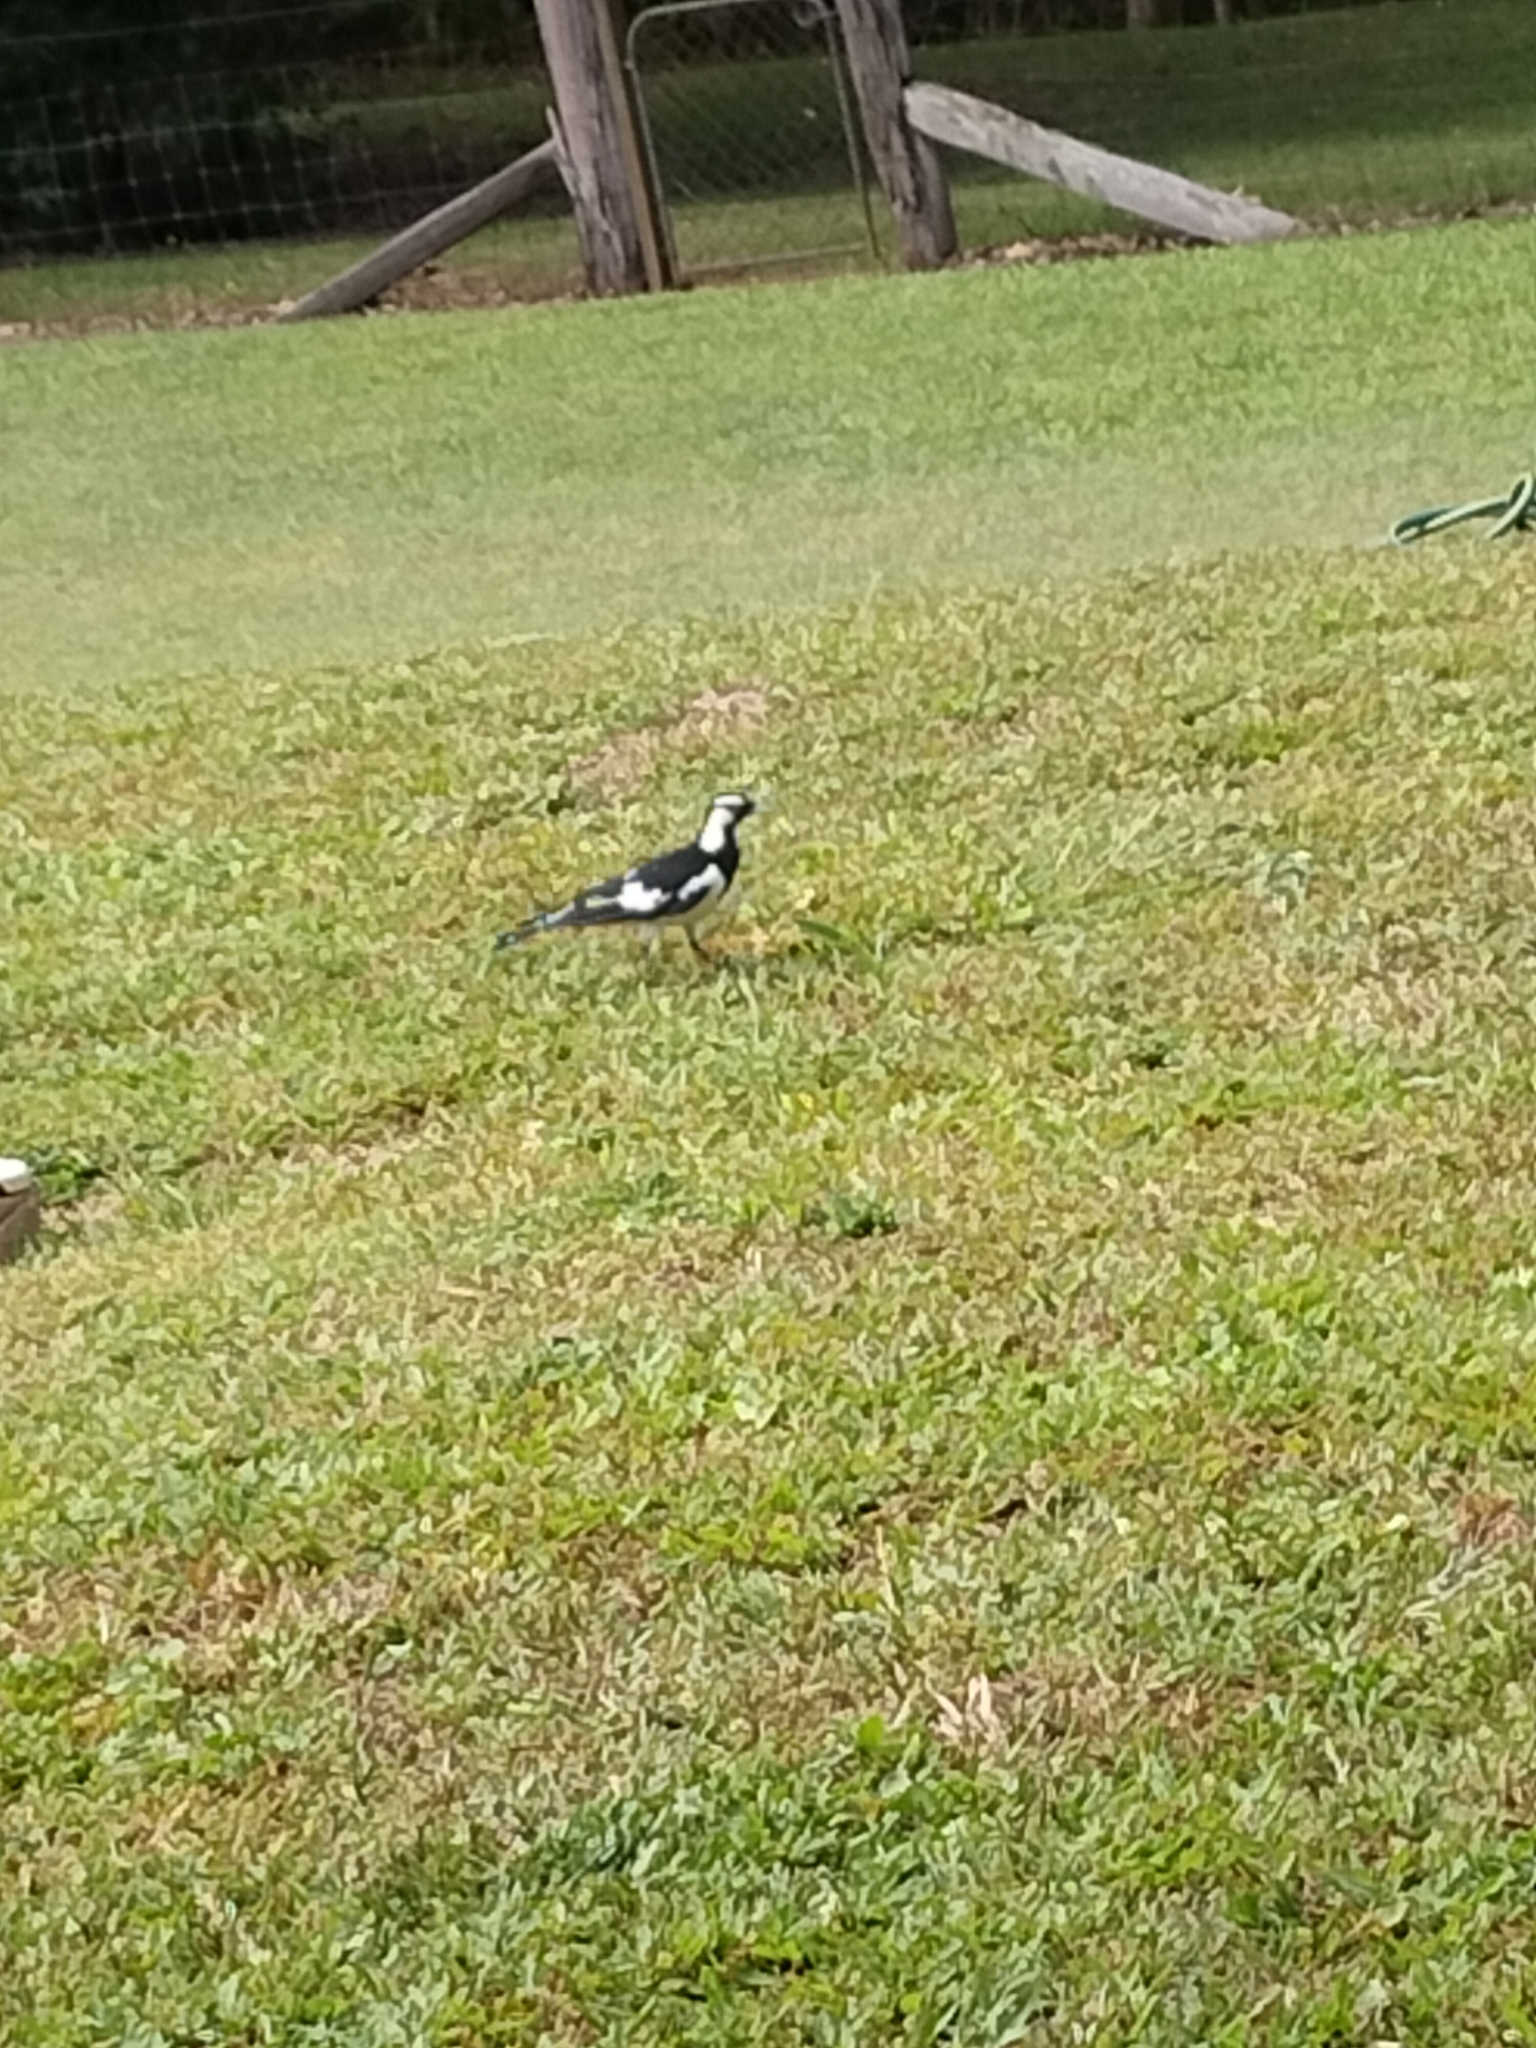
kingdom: Animalia
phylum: Chordata
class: Aves
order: Passeriformes
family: Monarchidae
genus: Grallina
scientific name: Grallina cyanoleuca
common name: Magpie-lark
